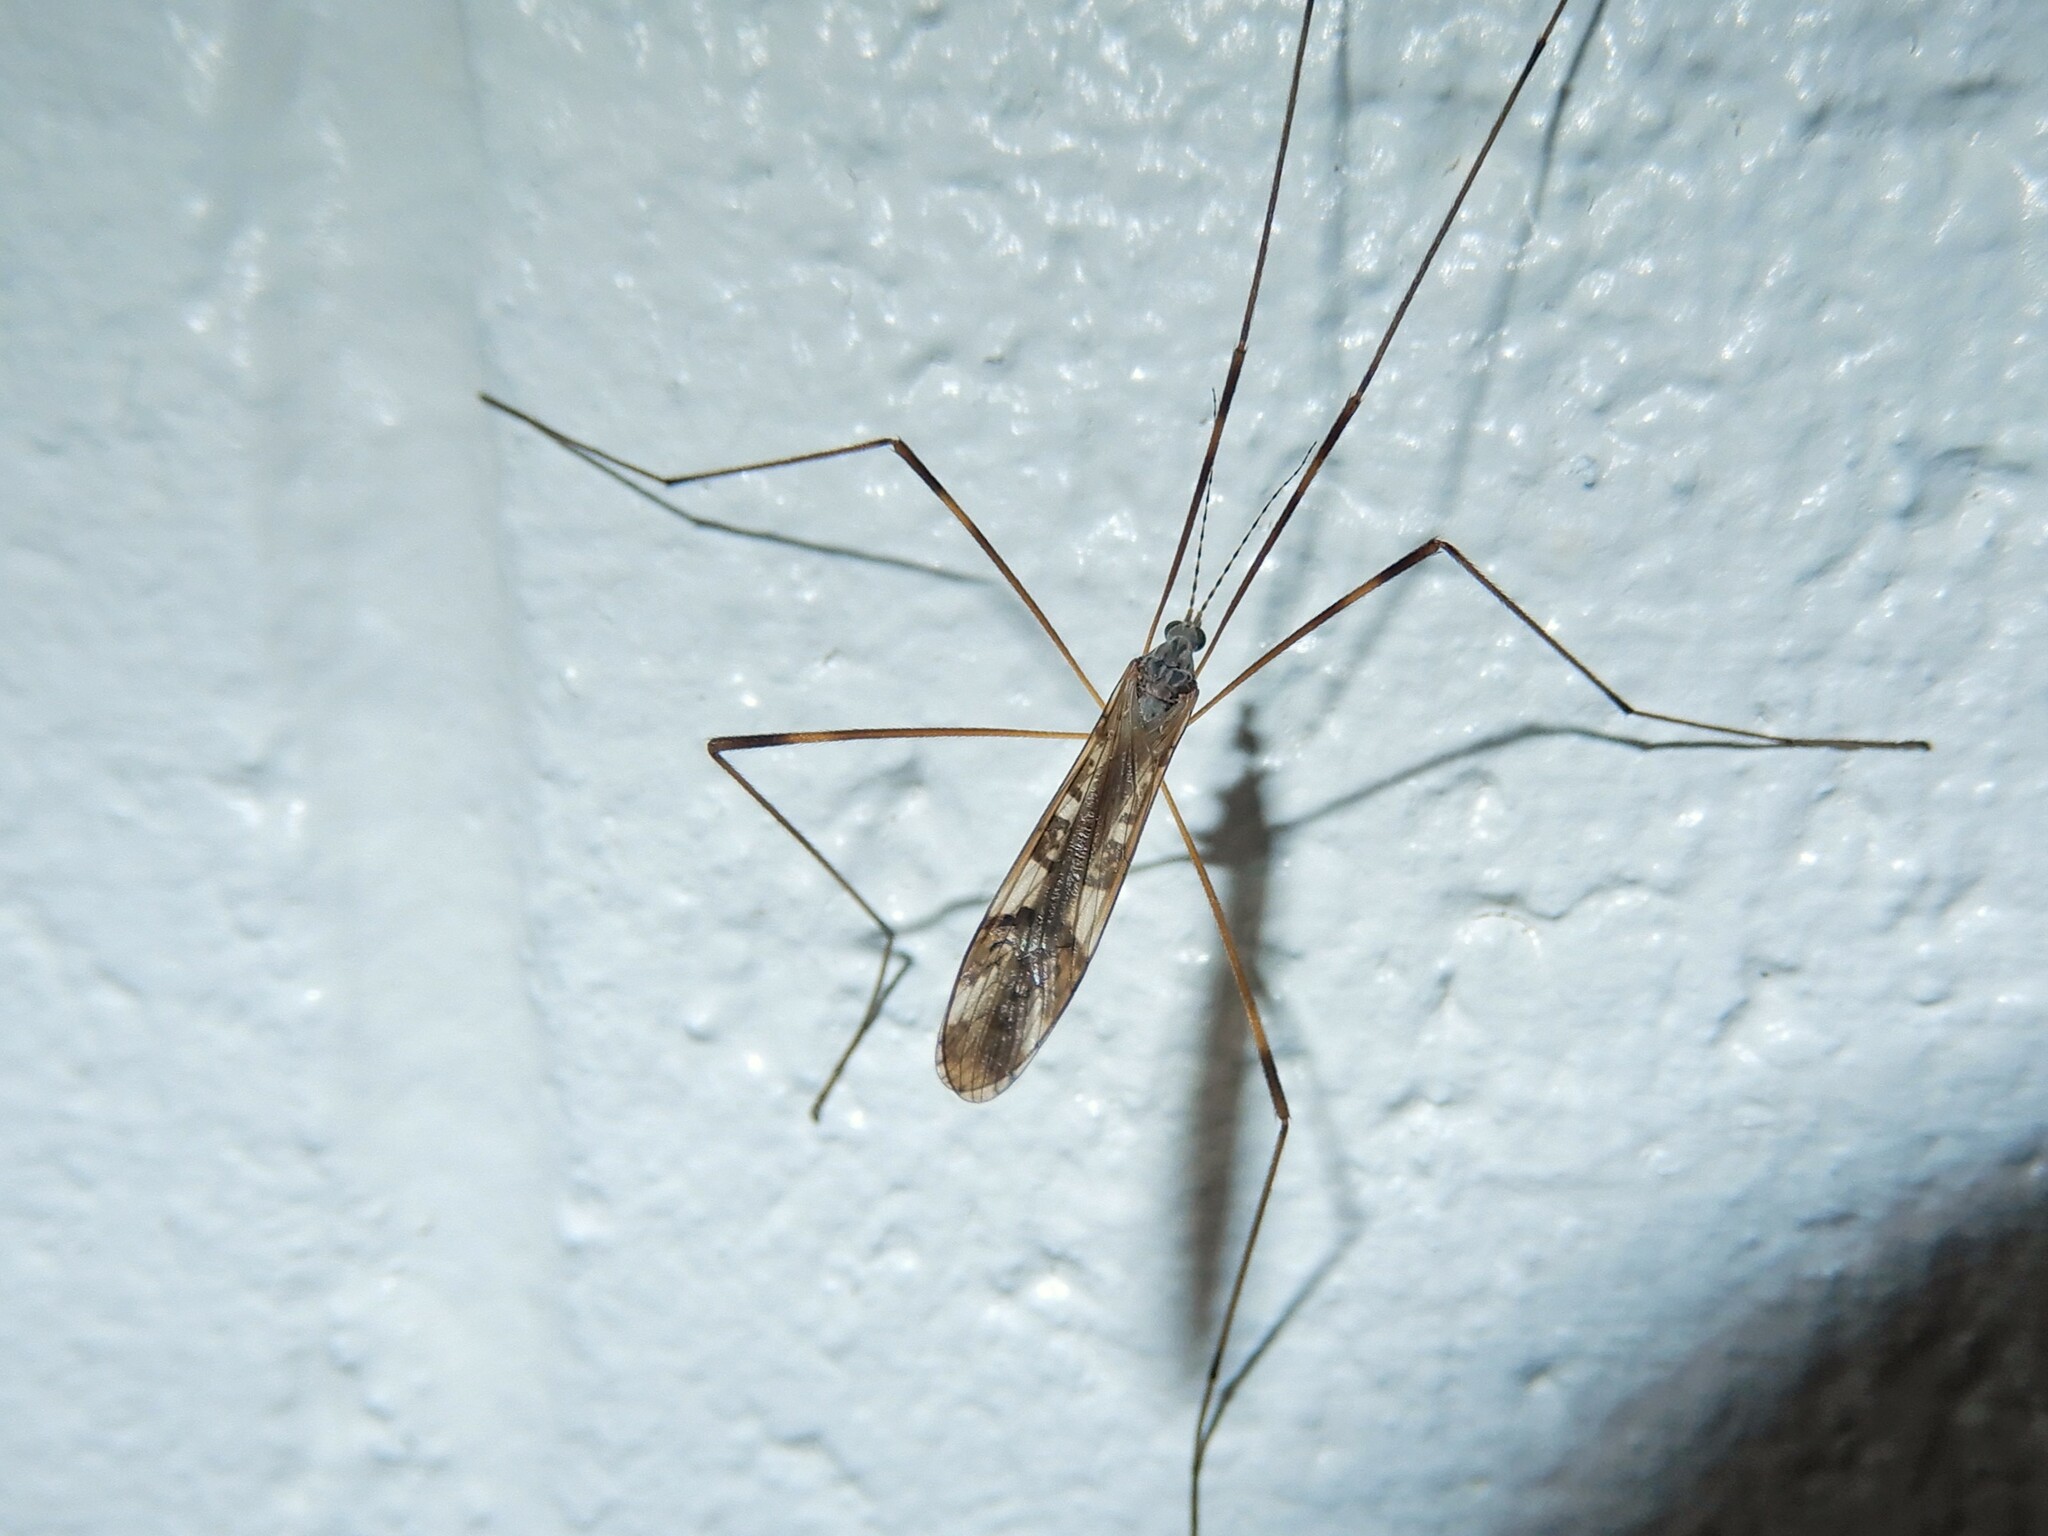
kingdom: Animalia
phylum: Arthropoda
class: Insecta
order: Diptera
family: Limoniidae
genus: Paralimnophila
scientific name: Paralimnophila skusei
